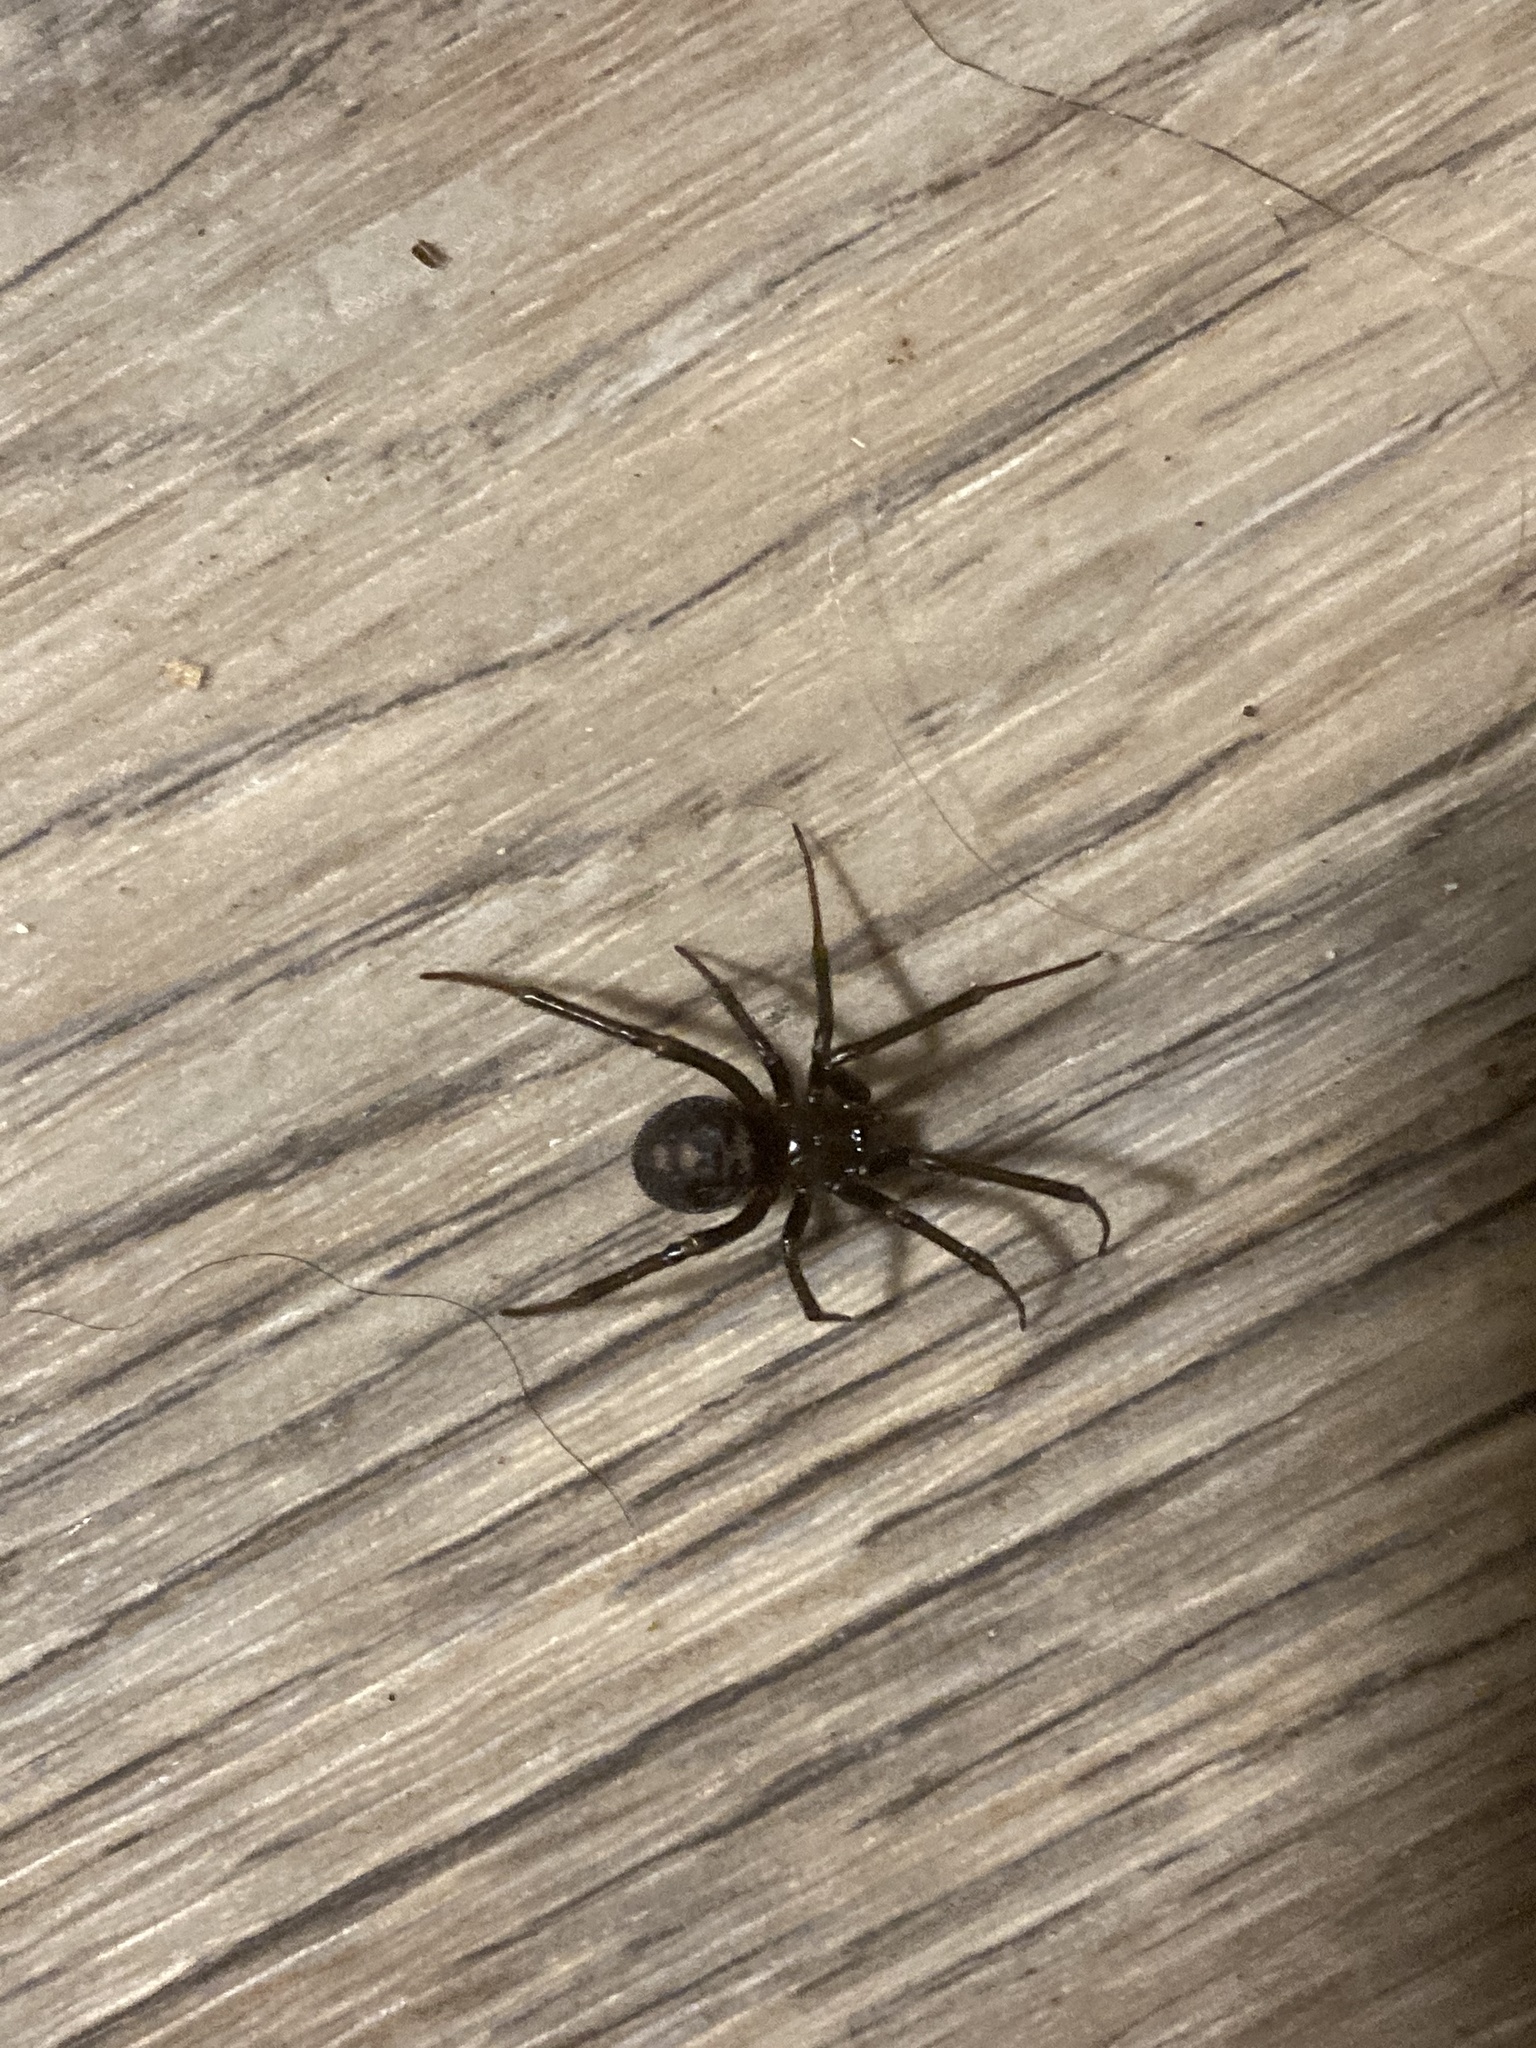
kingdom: Animalia
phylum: Arthropoda
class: Arachnida
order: Araneae
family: Theridiidae
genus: Steatoda
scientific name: Steatoda grossa
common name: False black widow
